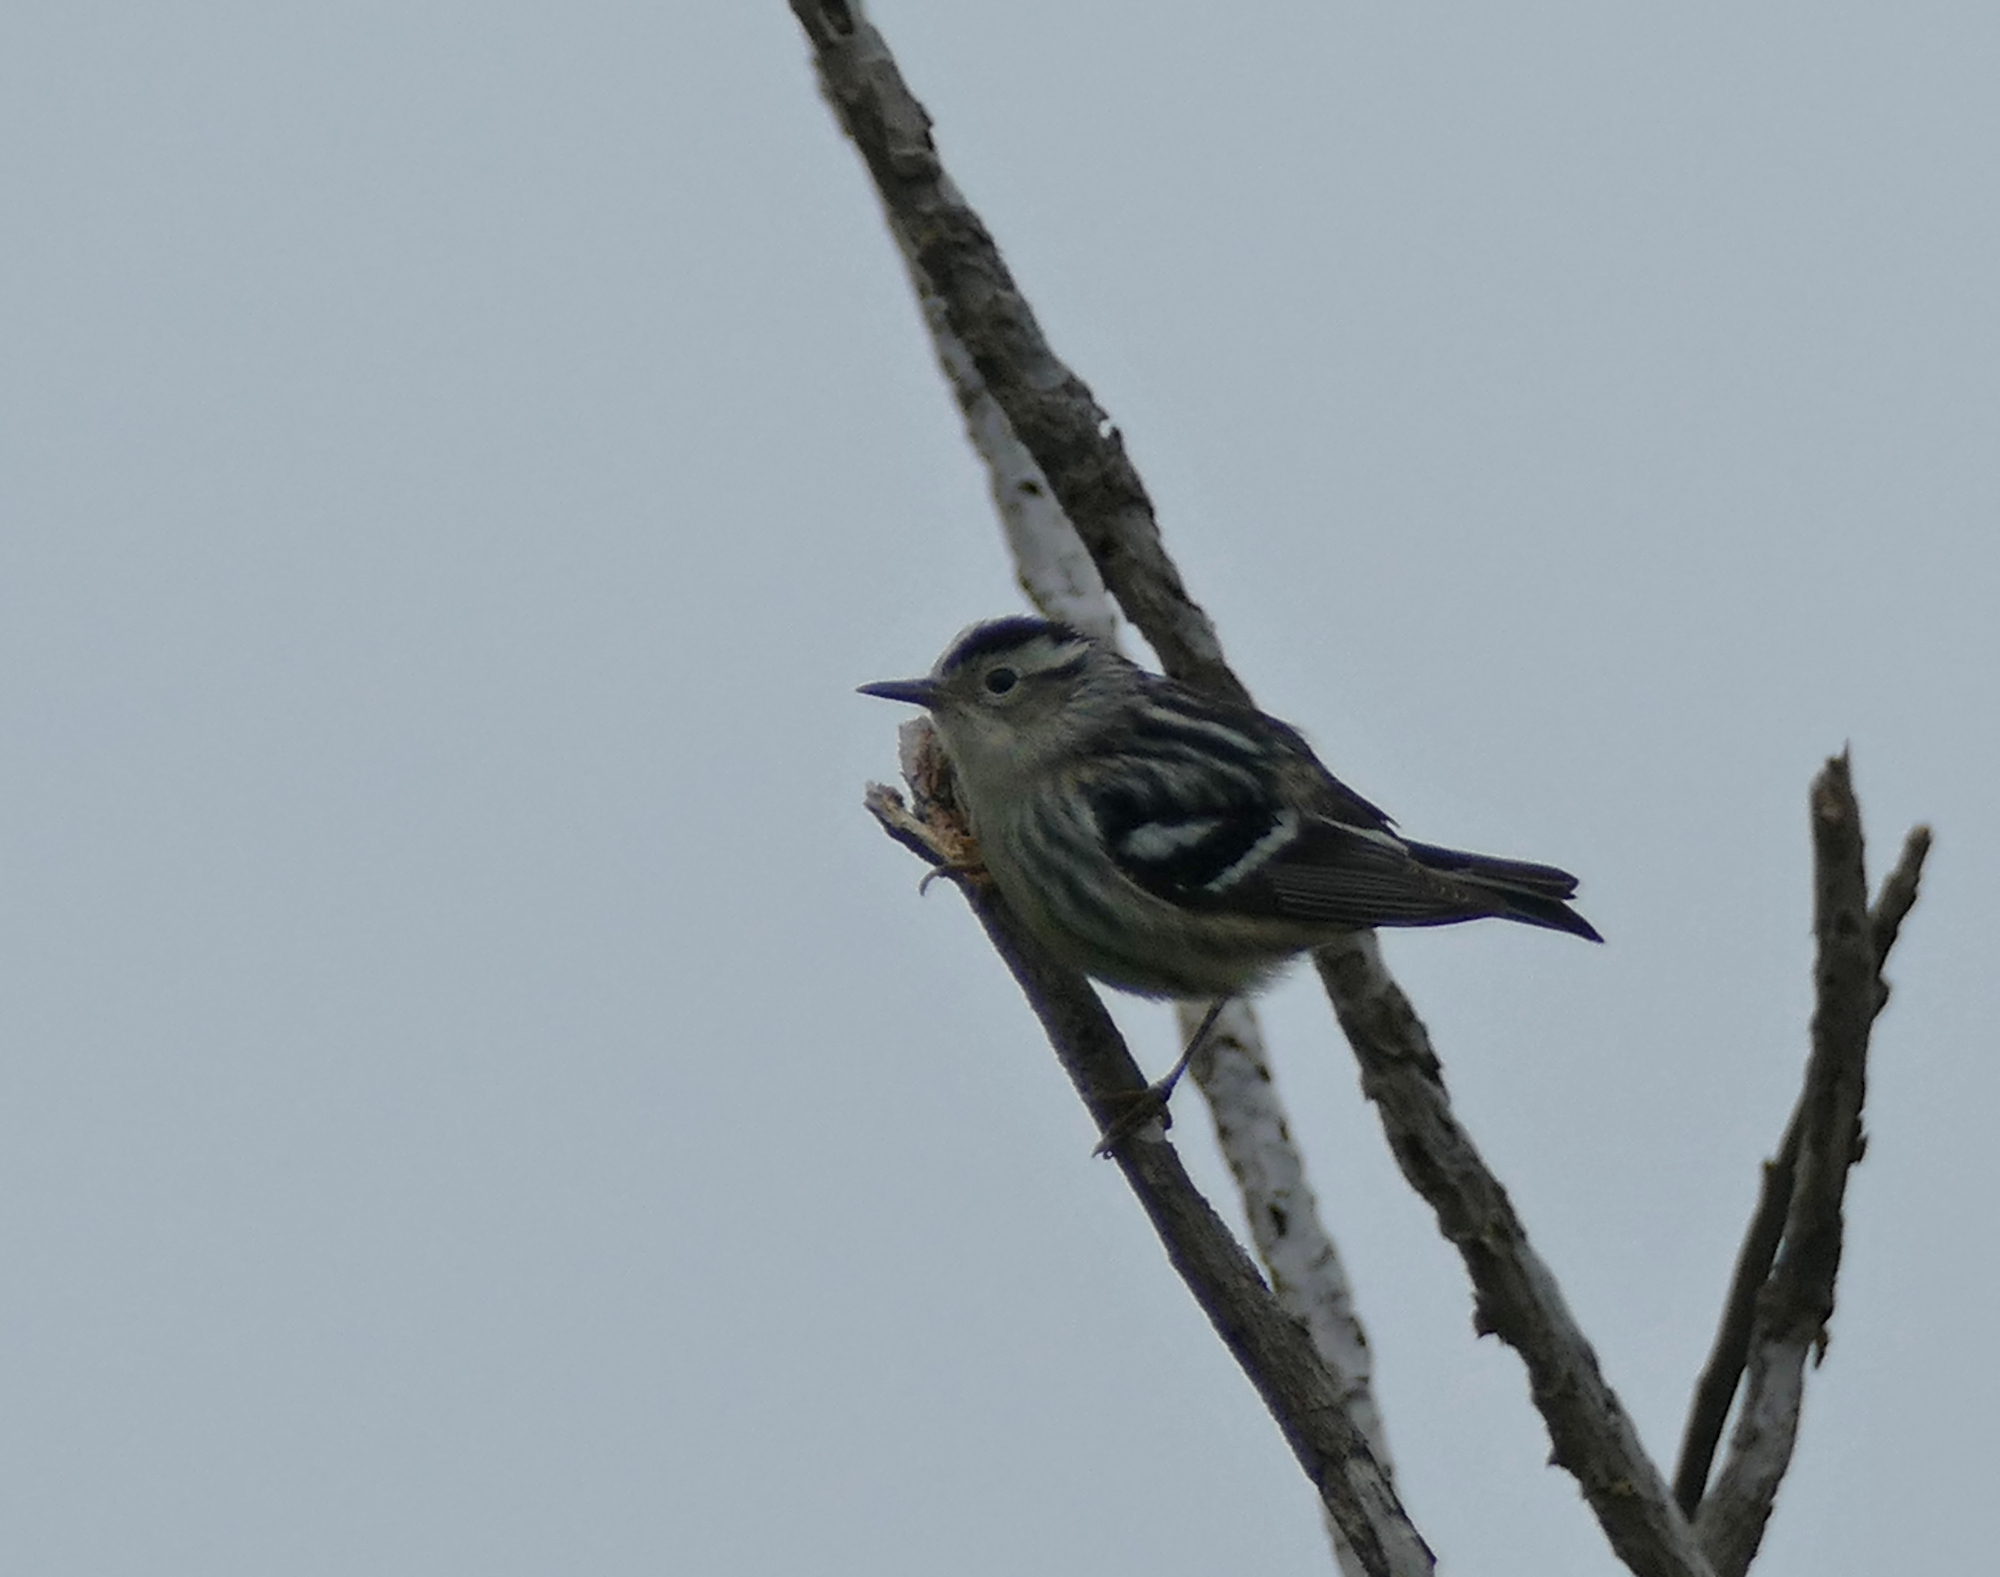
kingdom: Animalia
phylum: Chordata
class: Aves
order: Passeriformes
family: Parulidae
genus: Mniotilta
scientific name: Mniotilta varia
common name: Black-and-white warbler
